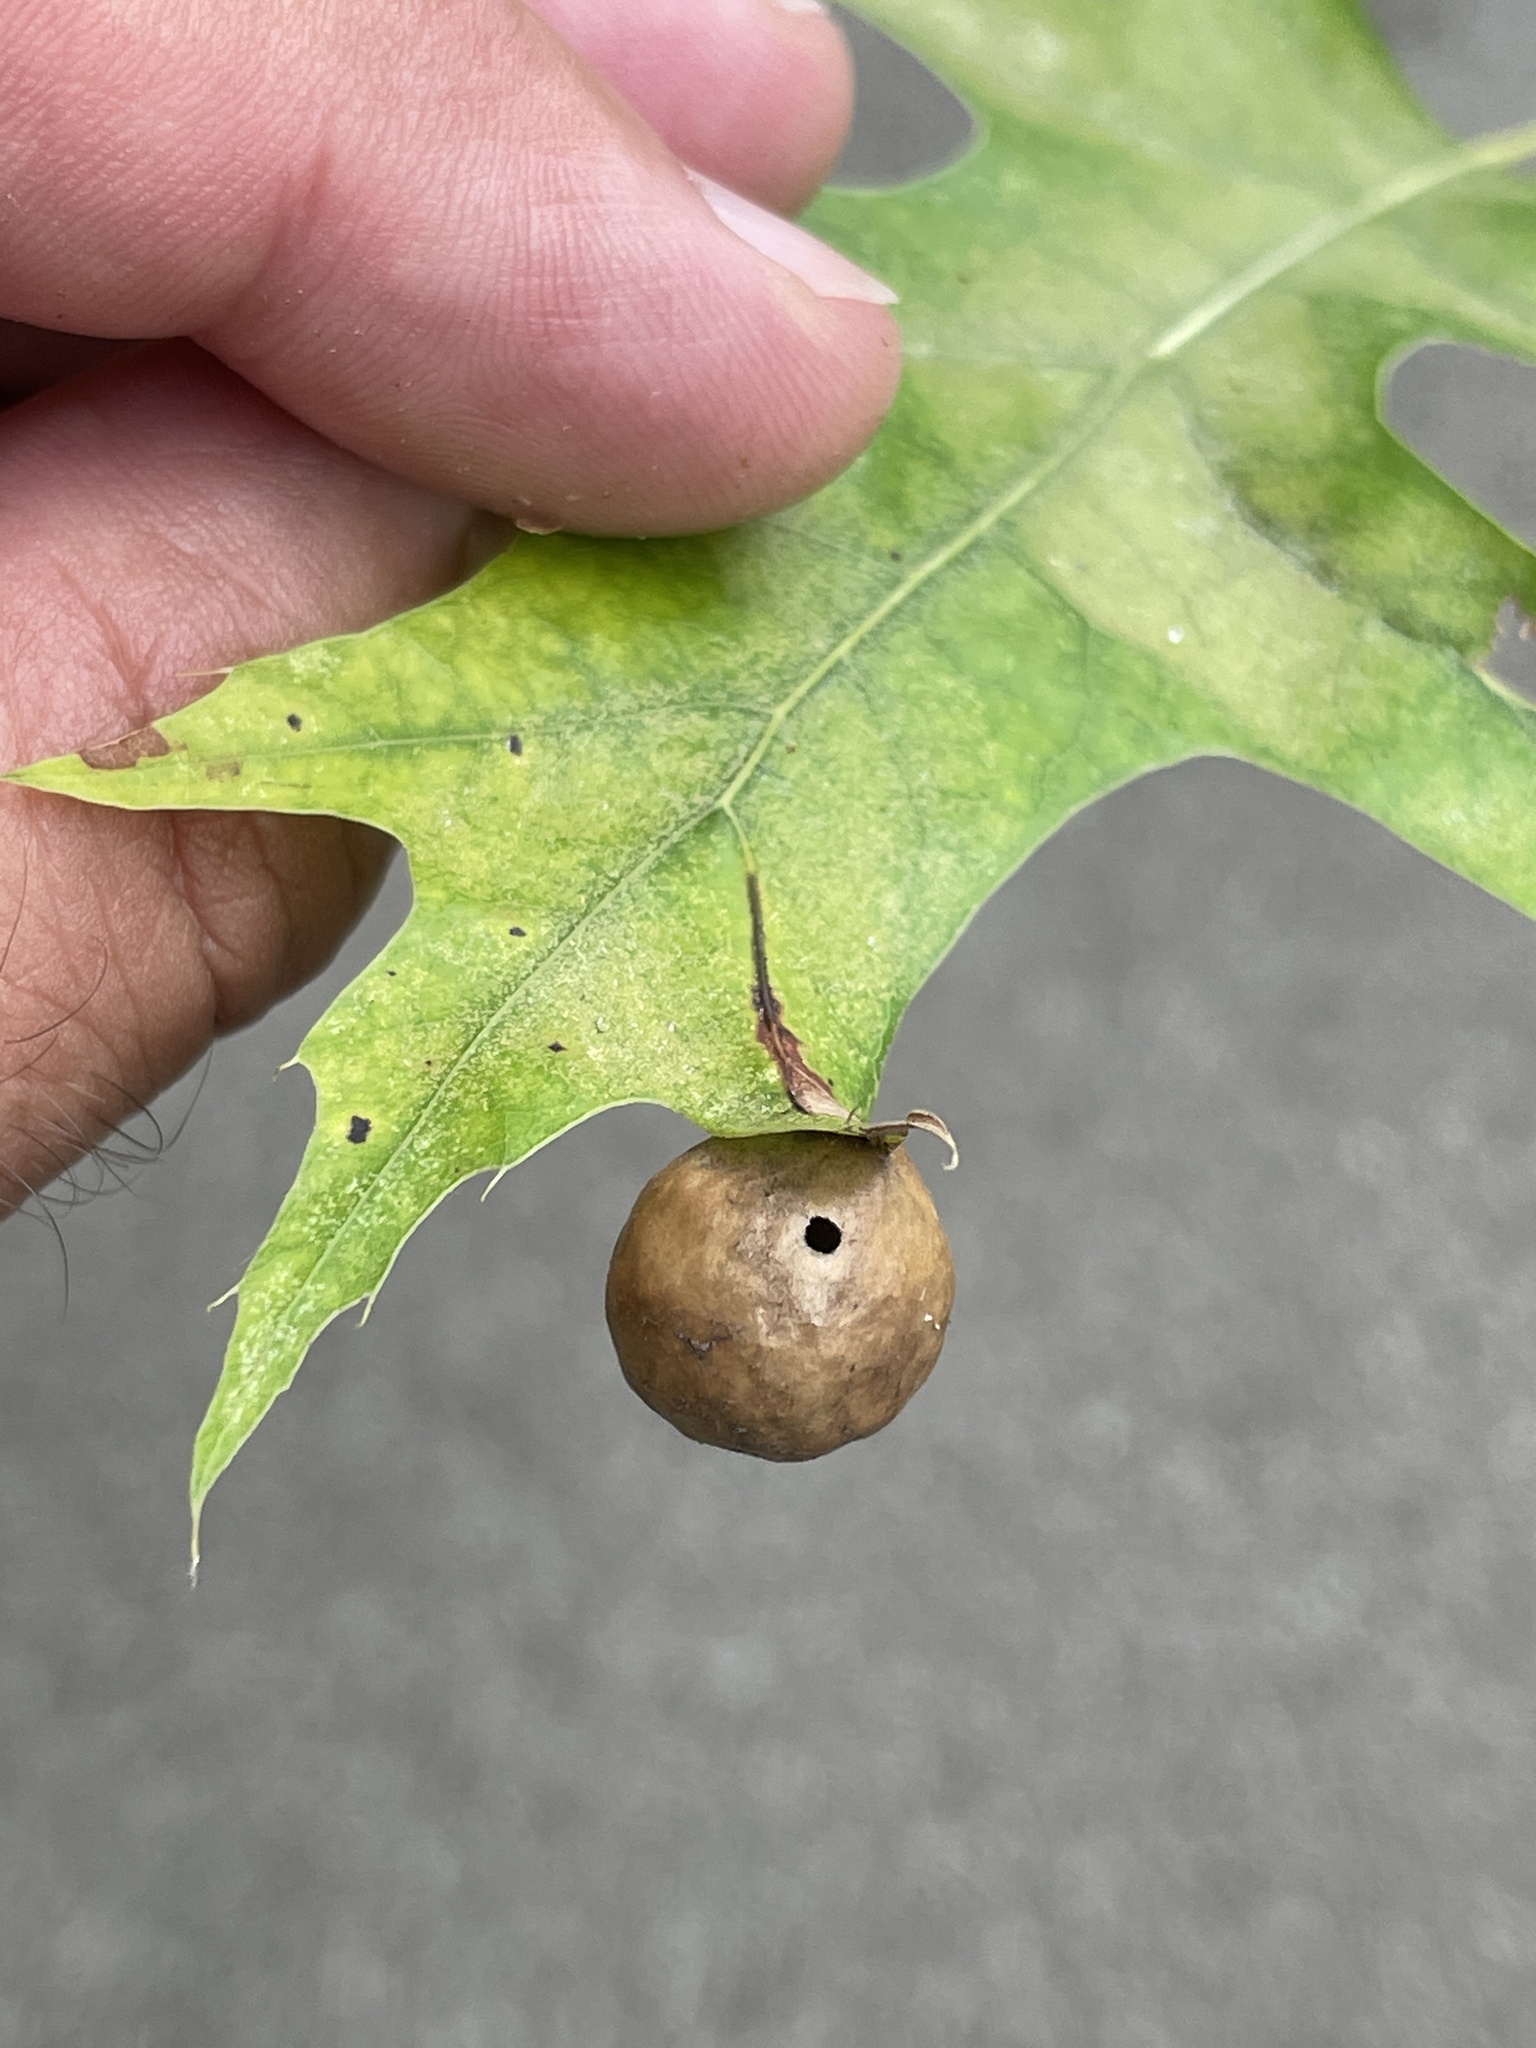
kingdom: Animalia
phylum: Arthropoda
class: Insecta
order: Hymenoptera
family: Cynipidae
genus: Amphibolips
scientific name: Amphibolips
